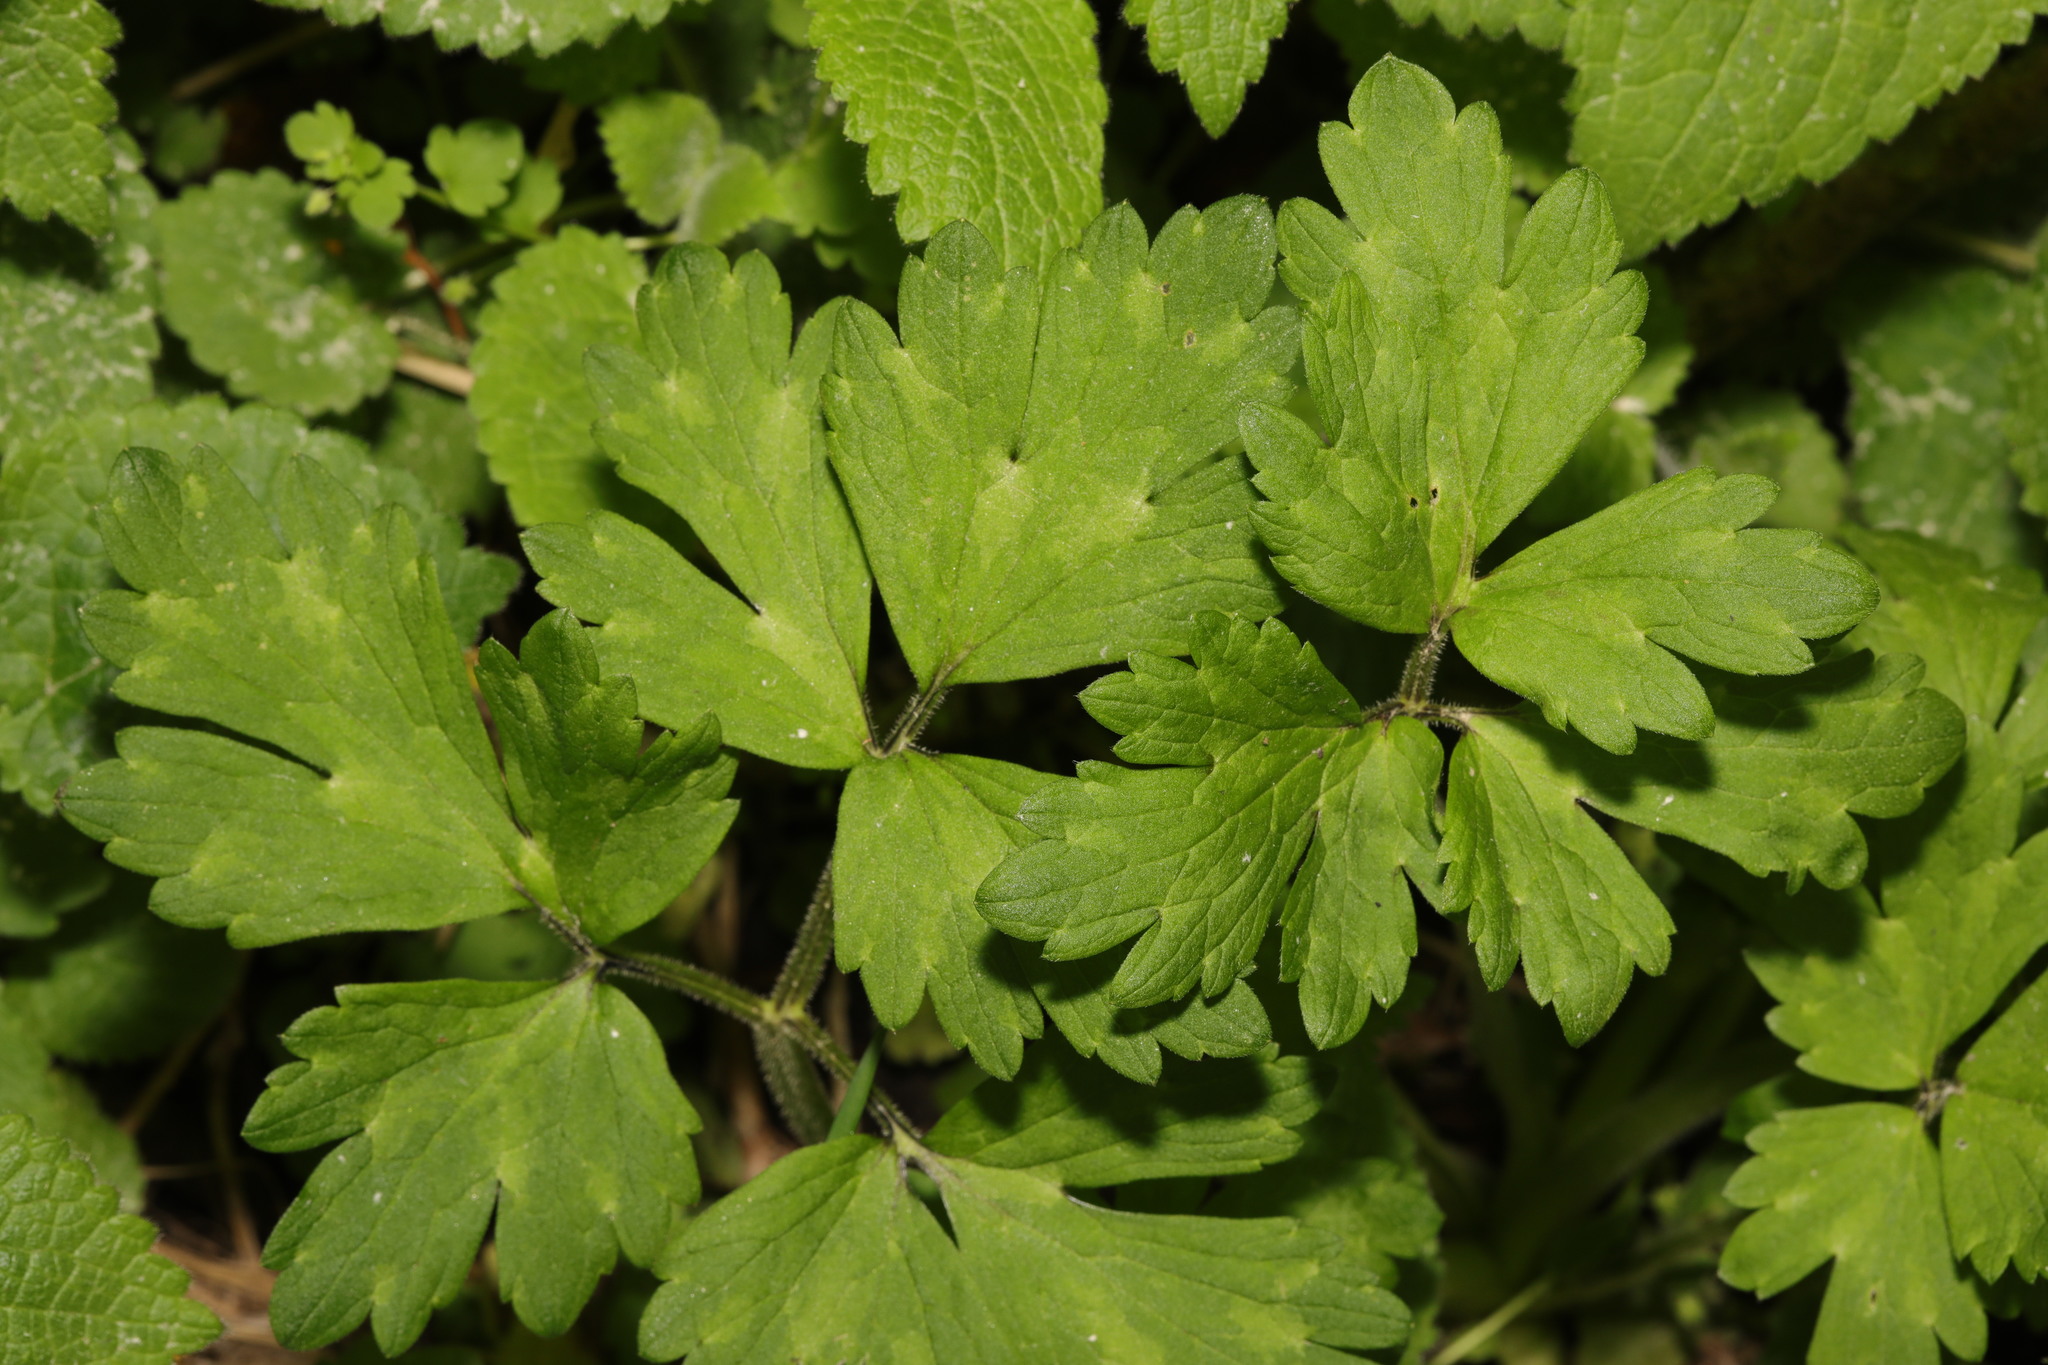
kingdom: Plantae
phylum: Tracheophyta
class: Magnoliopsida
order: Ranunculales
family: Ranunculaceae
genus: Ranunculus
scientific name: Ranunculus repens
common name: Creeping buttercup
